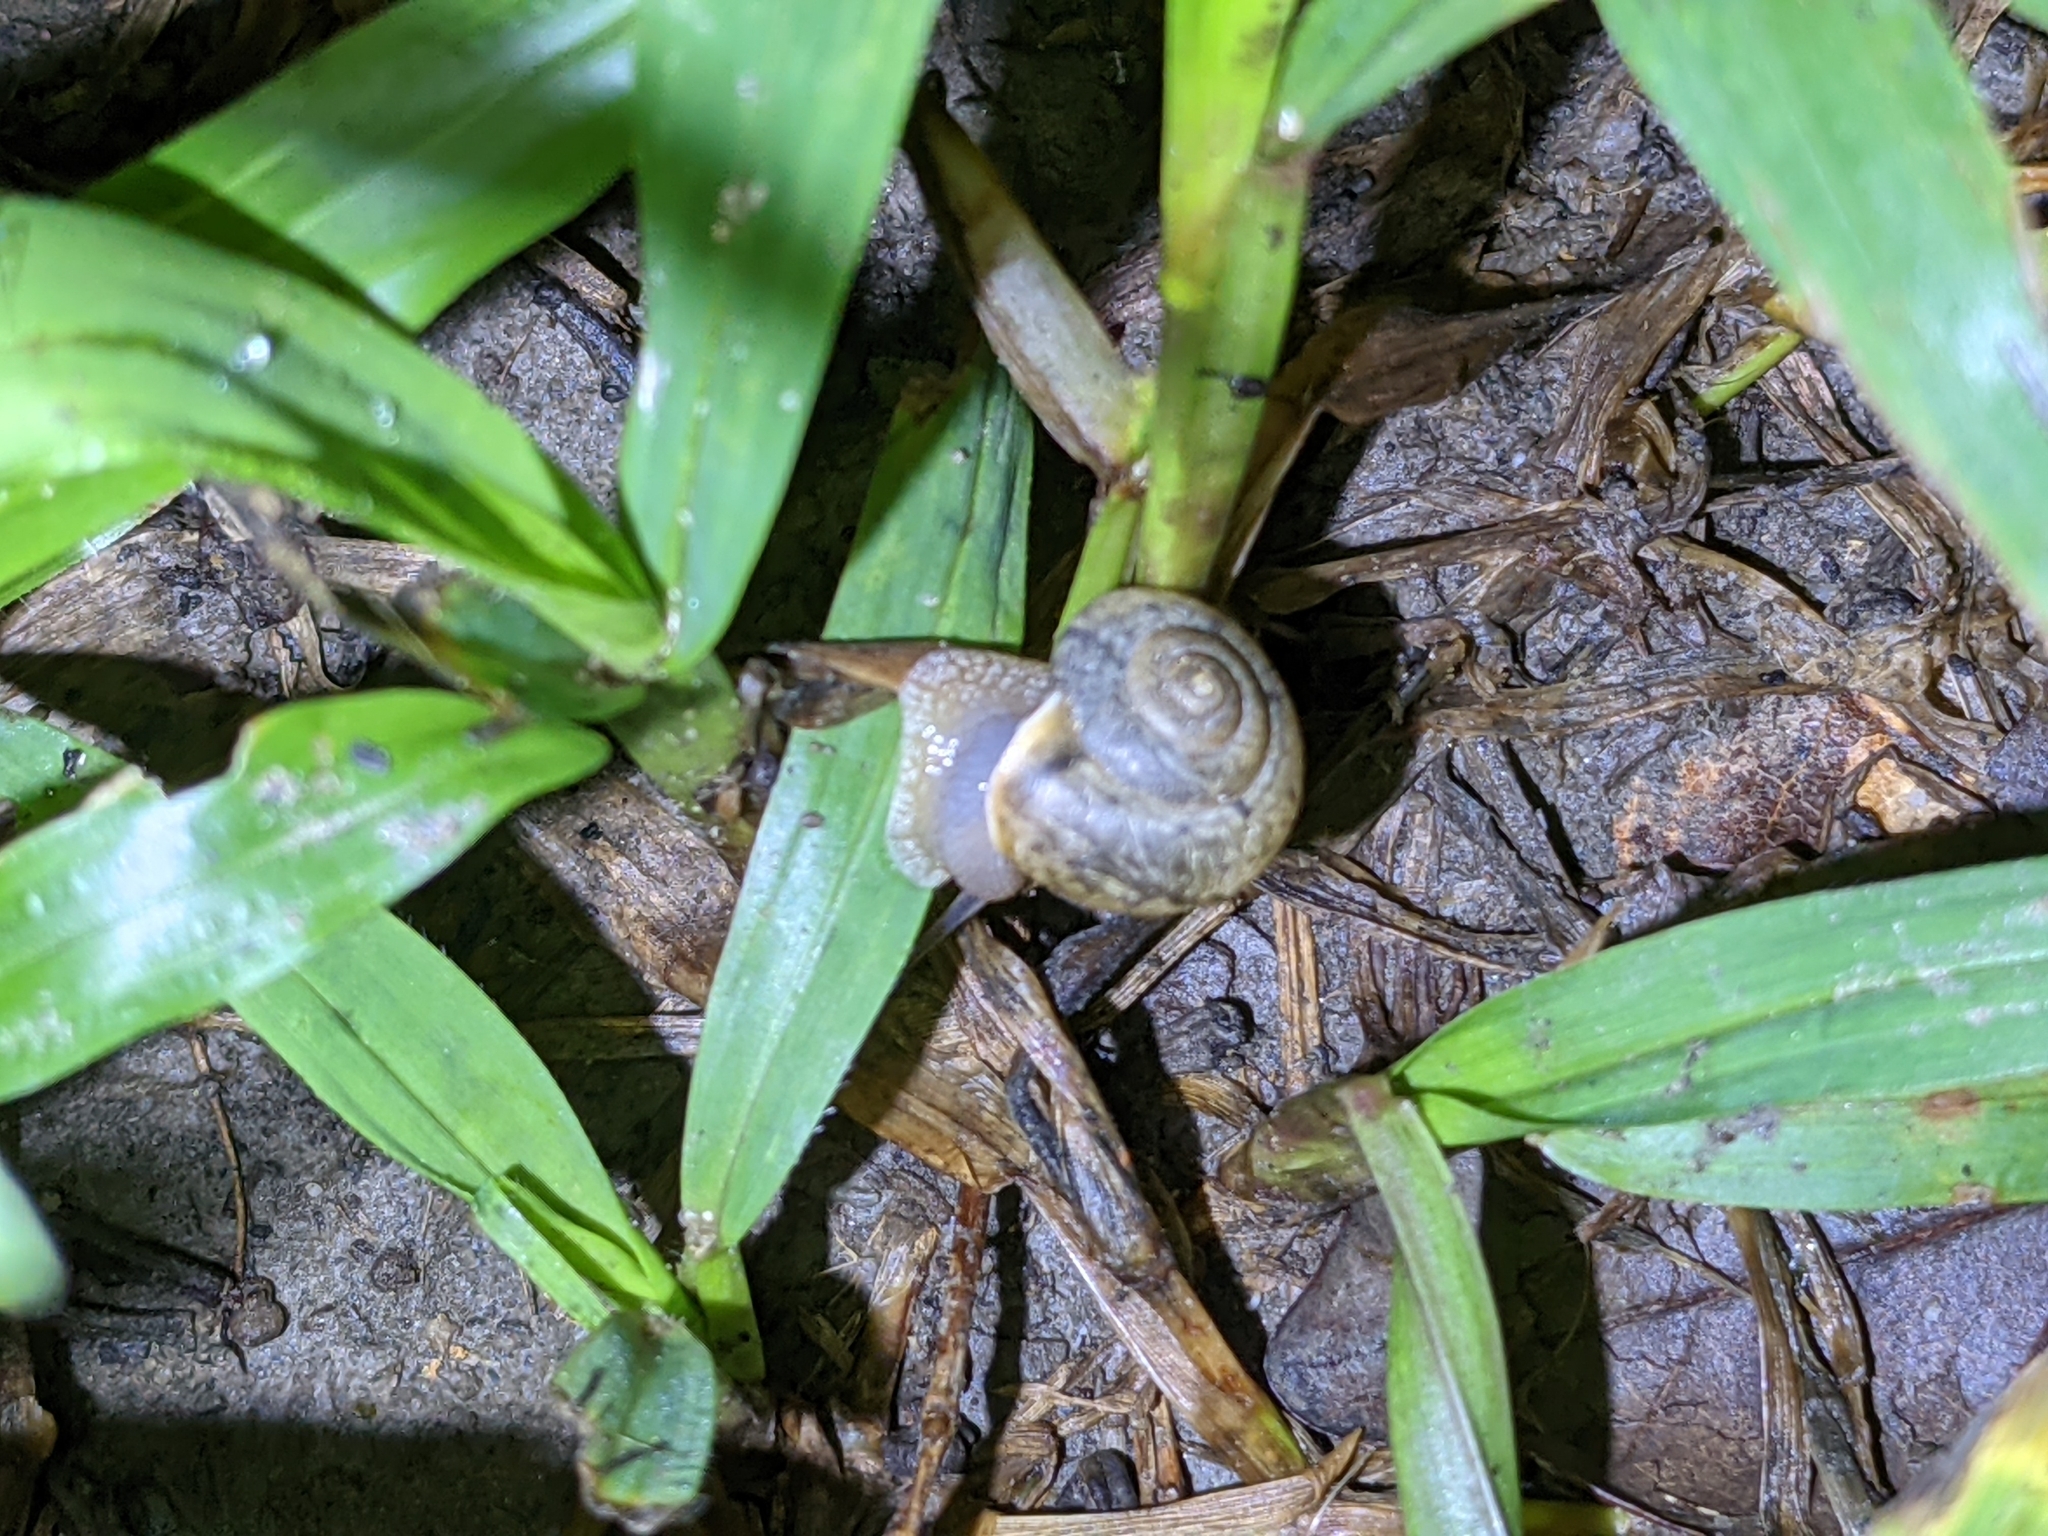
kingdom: Animalia
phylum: Mollusca
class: Gastropoda
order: Stylommatophora
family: Camaenidae
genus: Bradybaena
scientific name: Bradybaena similaris
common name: Asian trampsnail
